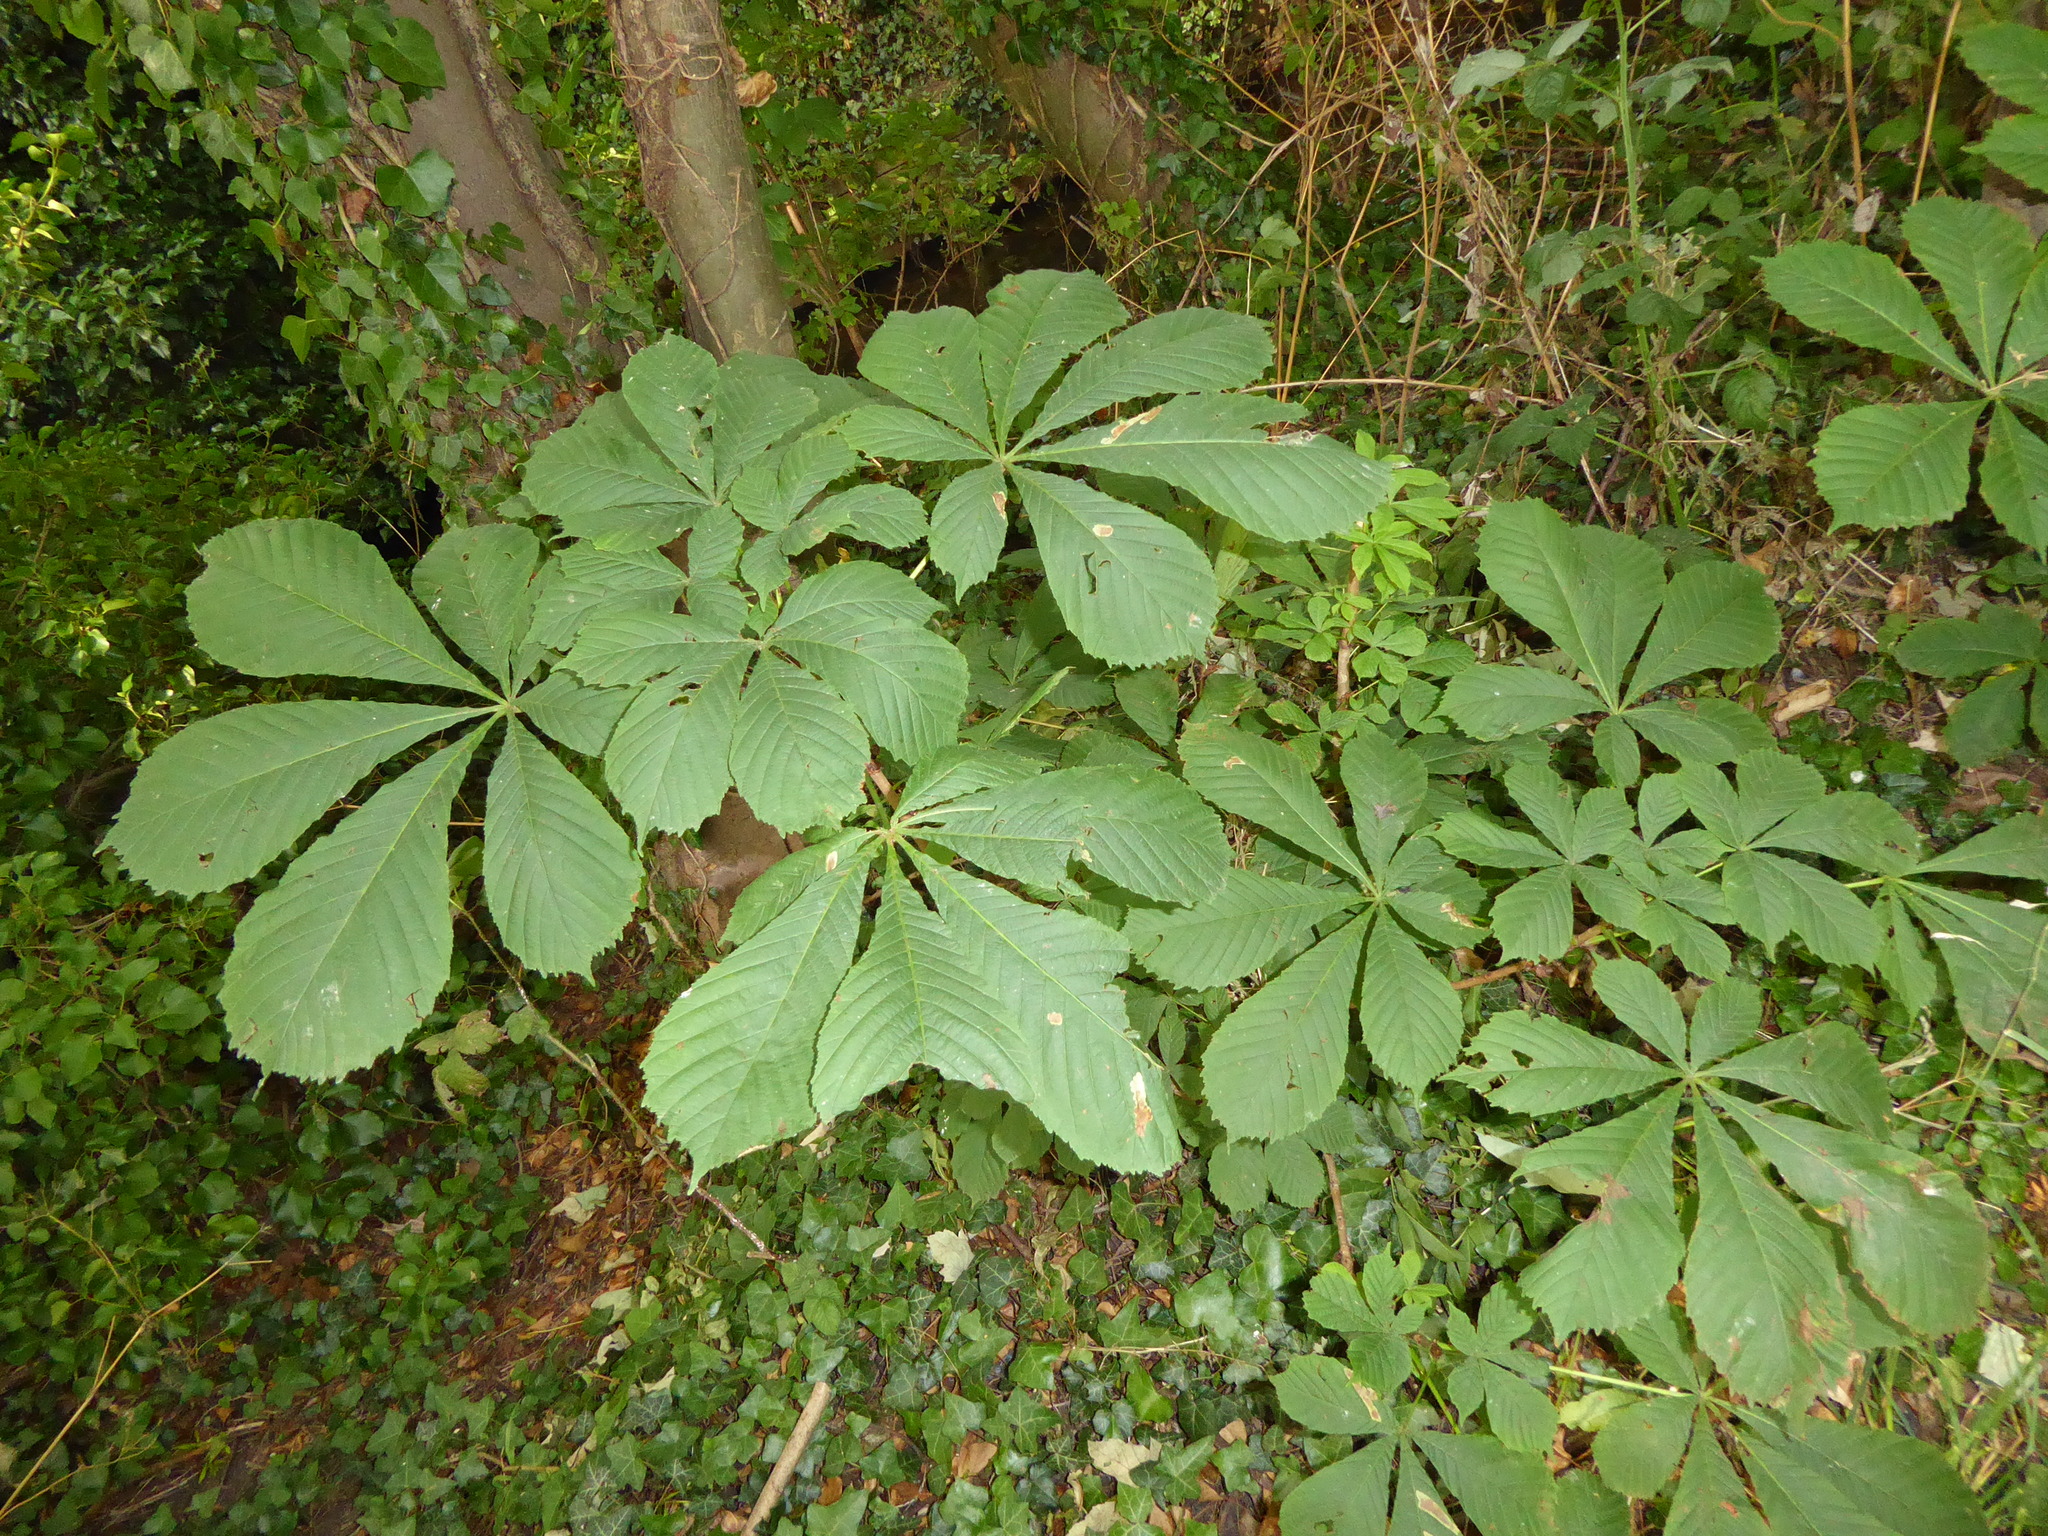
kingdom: Plantae
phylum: Tracheophyta
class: Magnoliopsida
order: Sapindales
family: Sapindaceae
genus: Aesculus
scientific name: Aesculus hippocastanum
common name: Horse-chestnut
